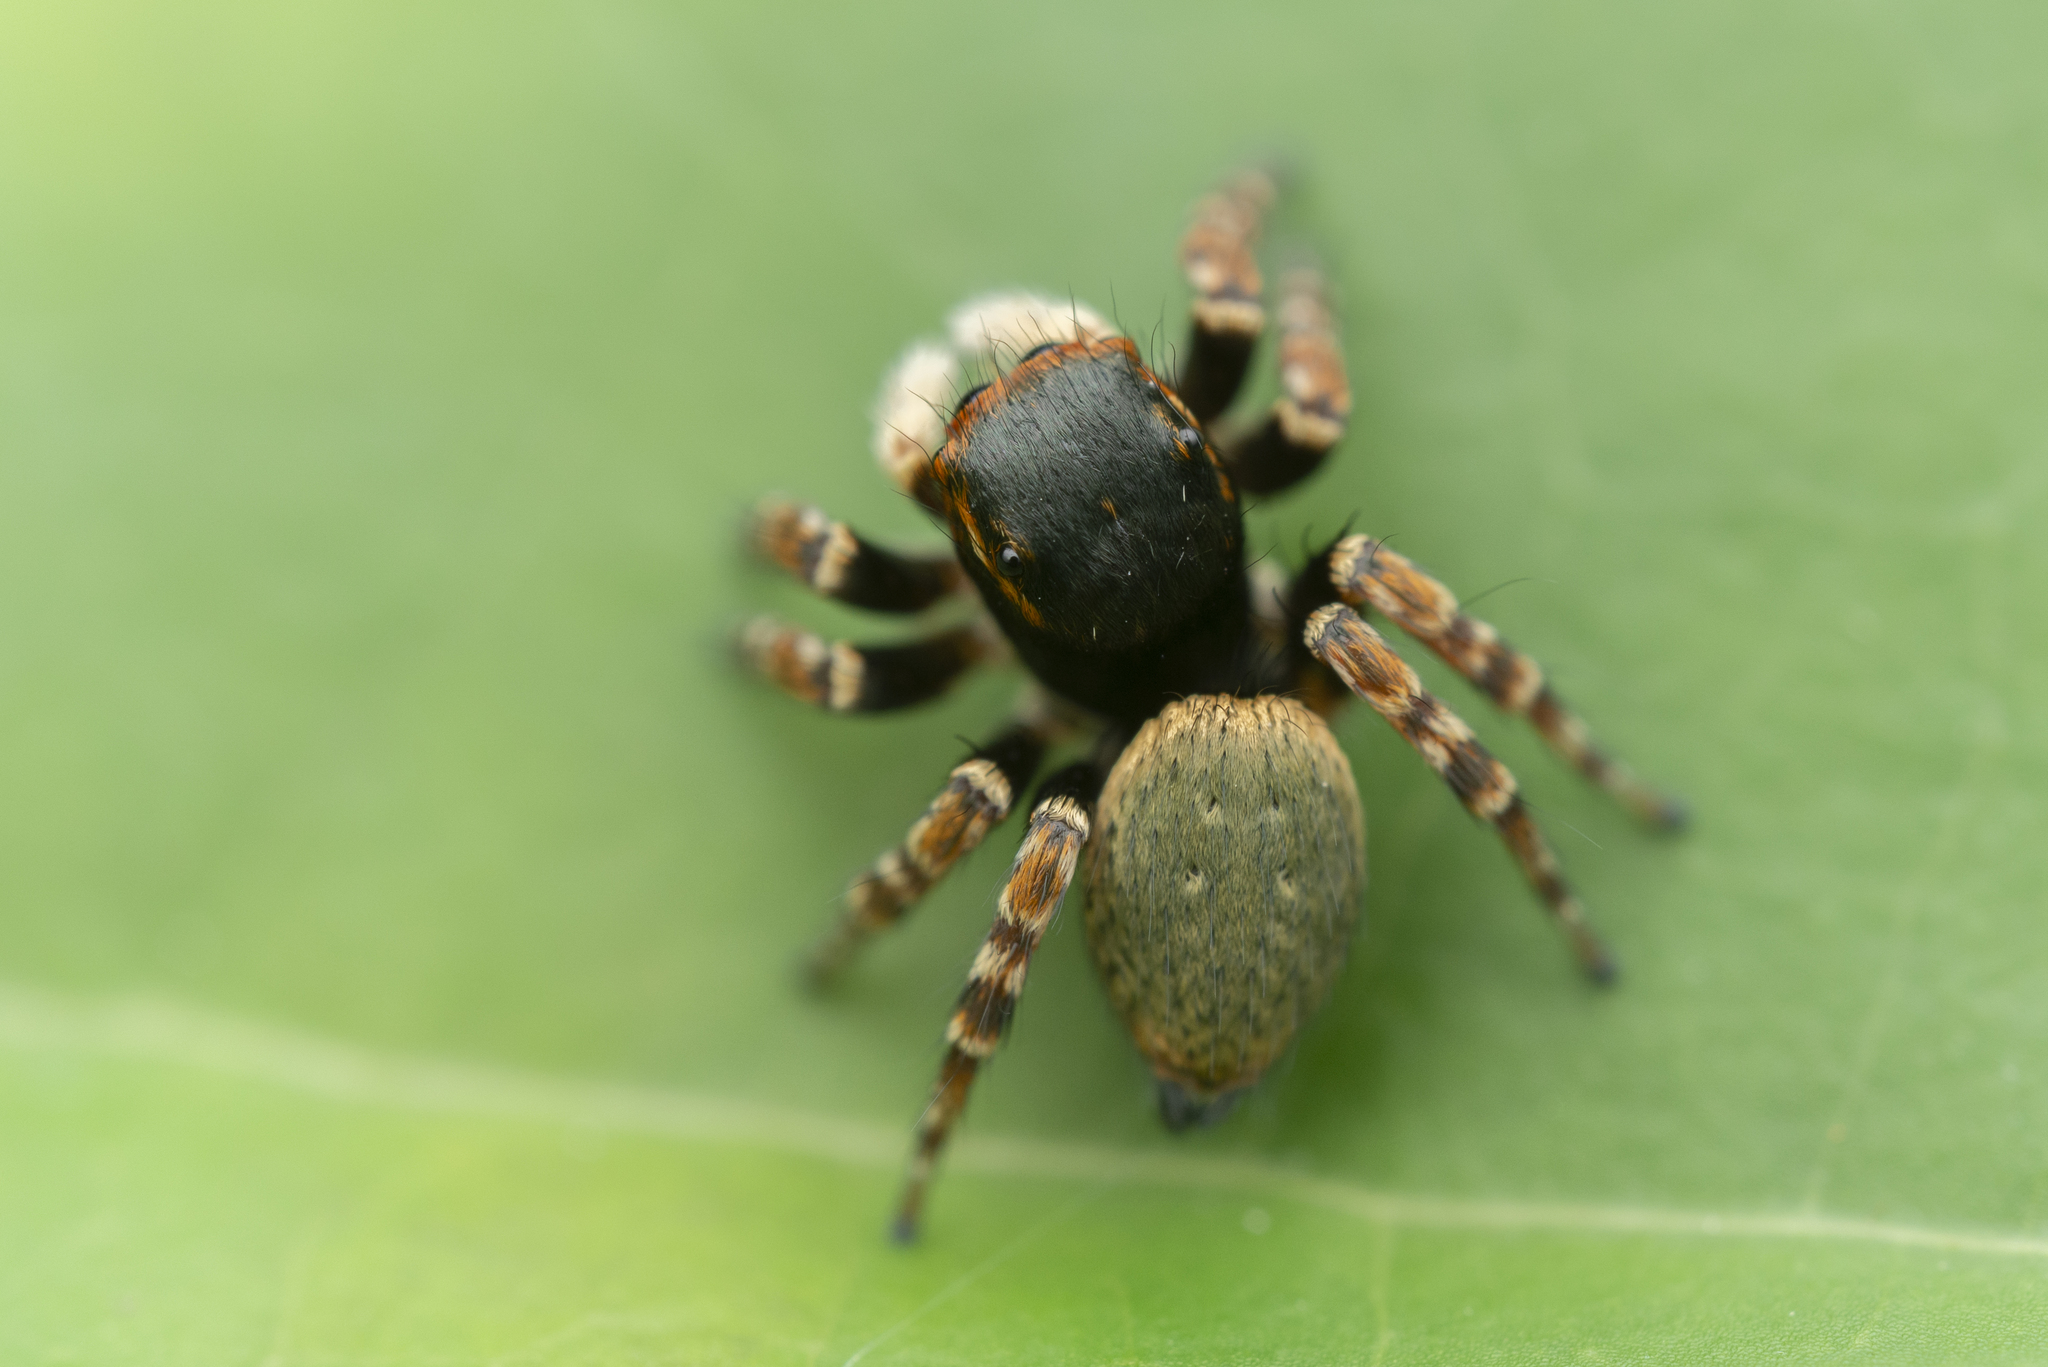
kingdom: Animalia
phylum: Arthropoda
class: Arachnida
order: Araneae
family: Salticidae
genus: Carrhotus
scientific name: Carrhotus sannio
